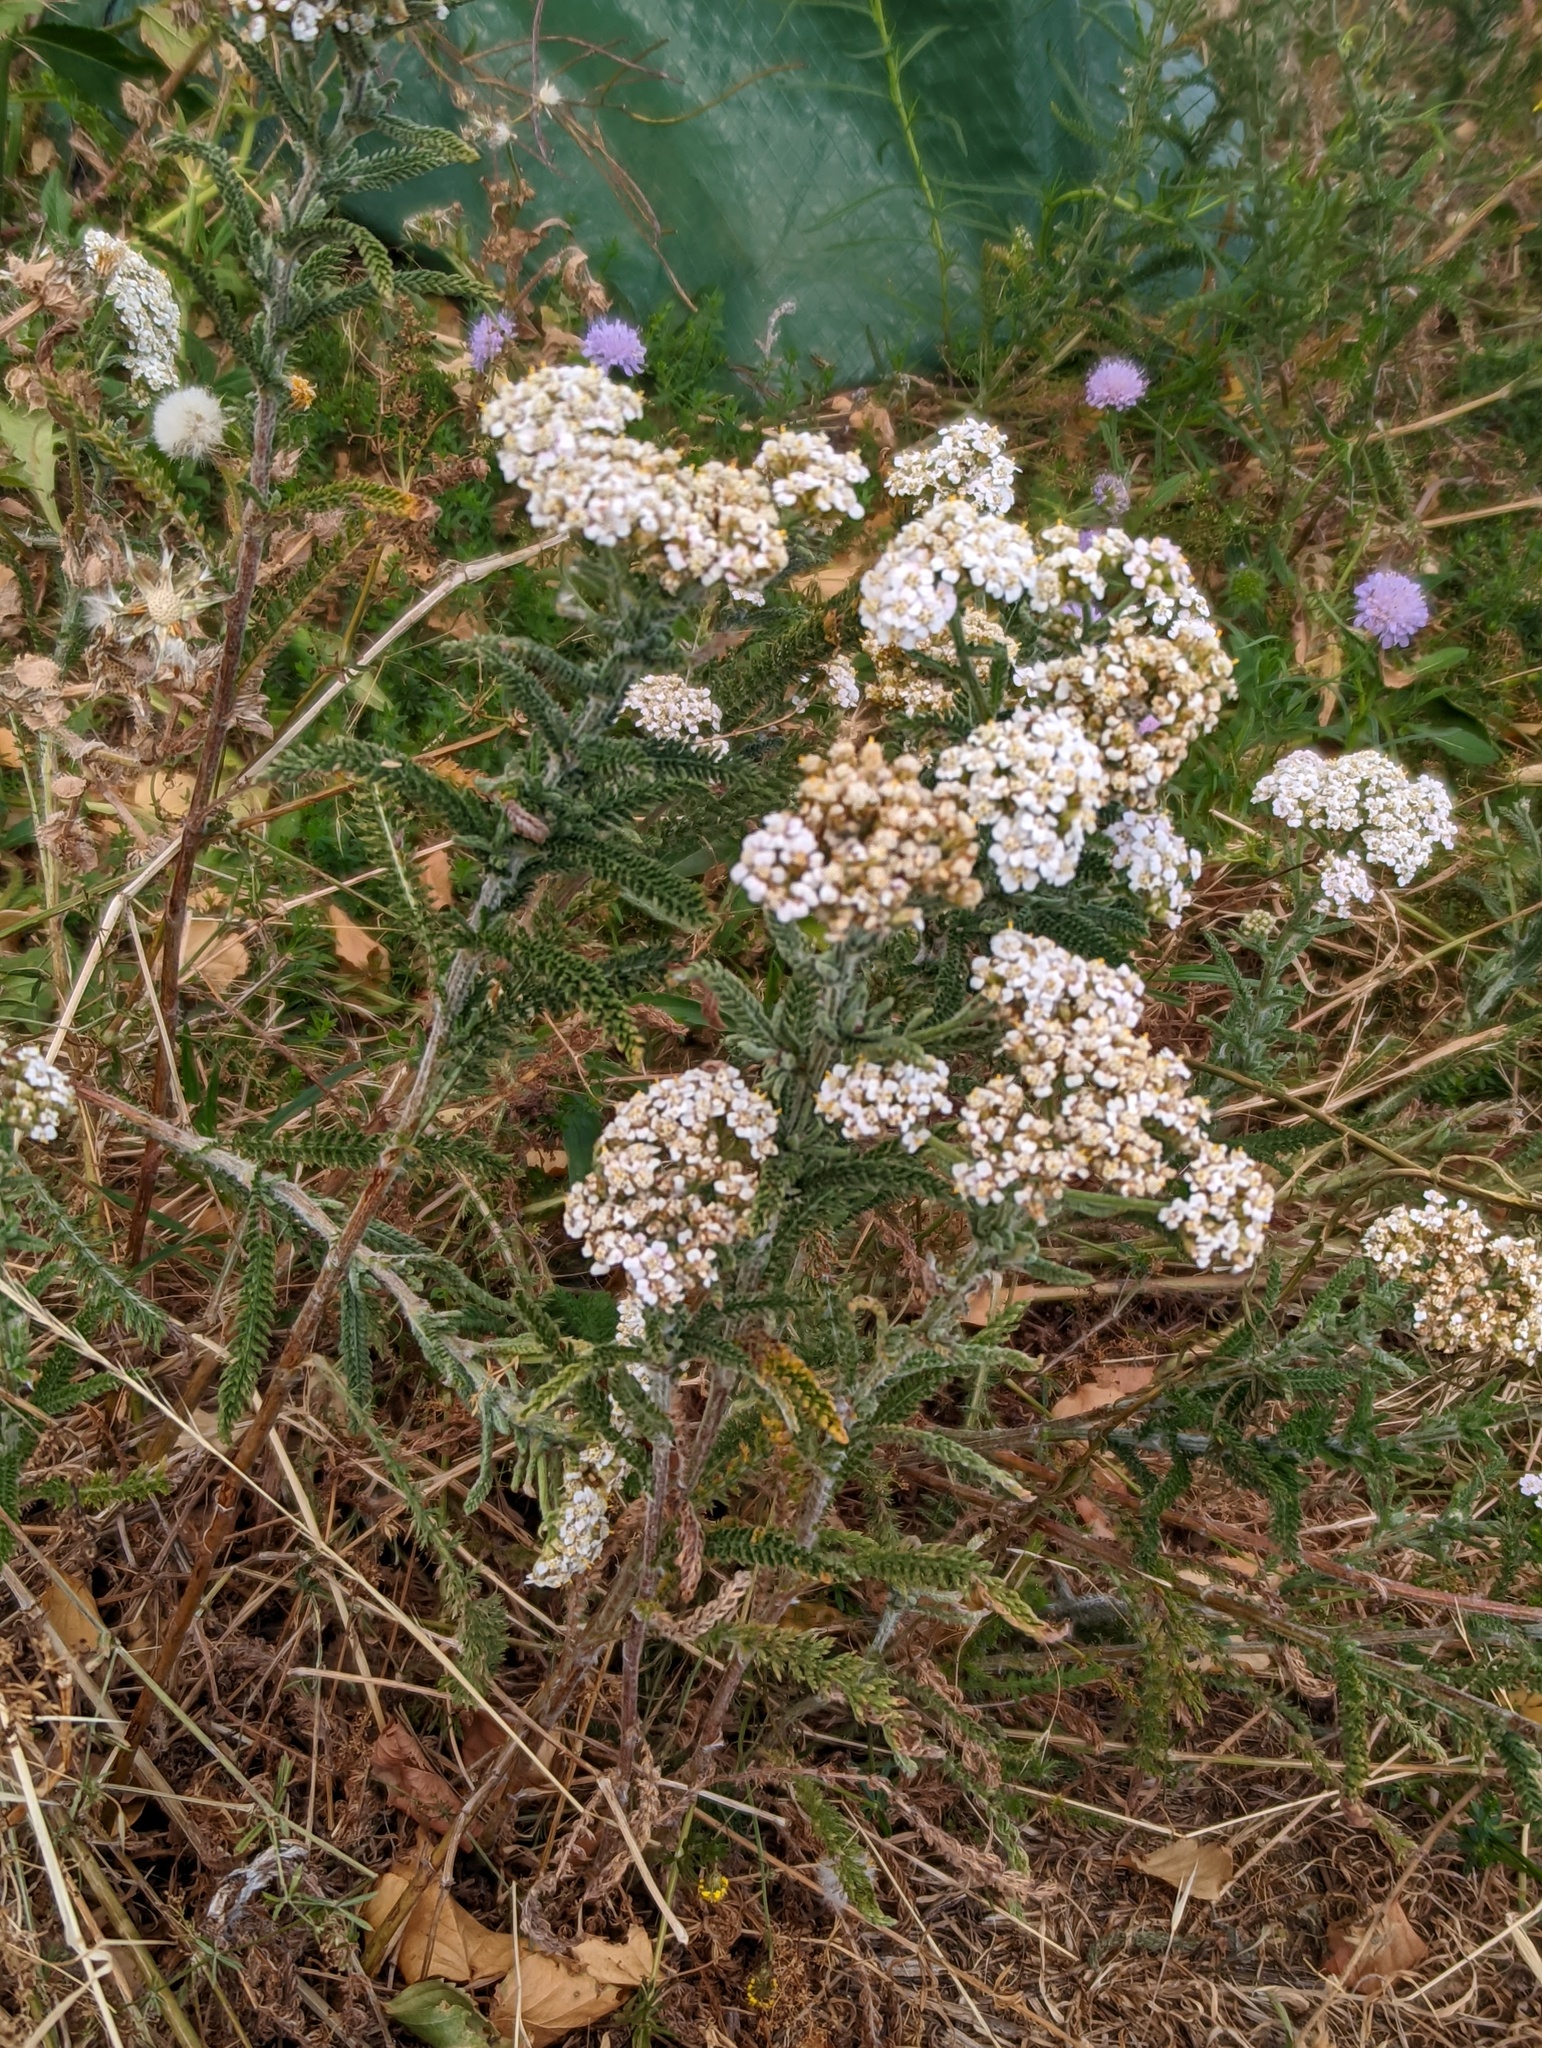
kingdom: Plantae
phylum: Tracheophyta
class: Magnoliopsida
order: Asterales
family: Asteraceae
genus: Achillea
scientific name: Achillea millefolium
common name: Yarrow
